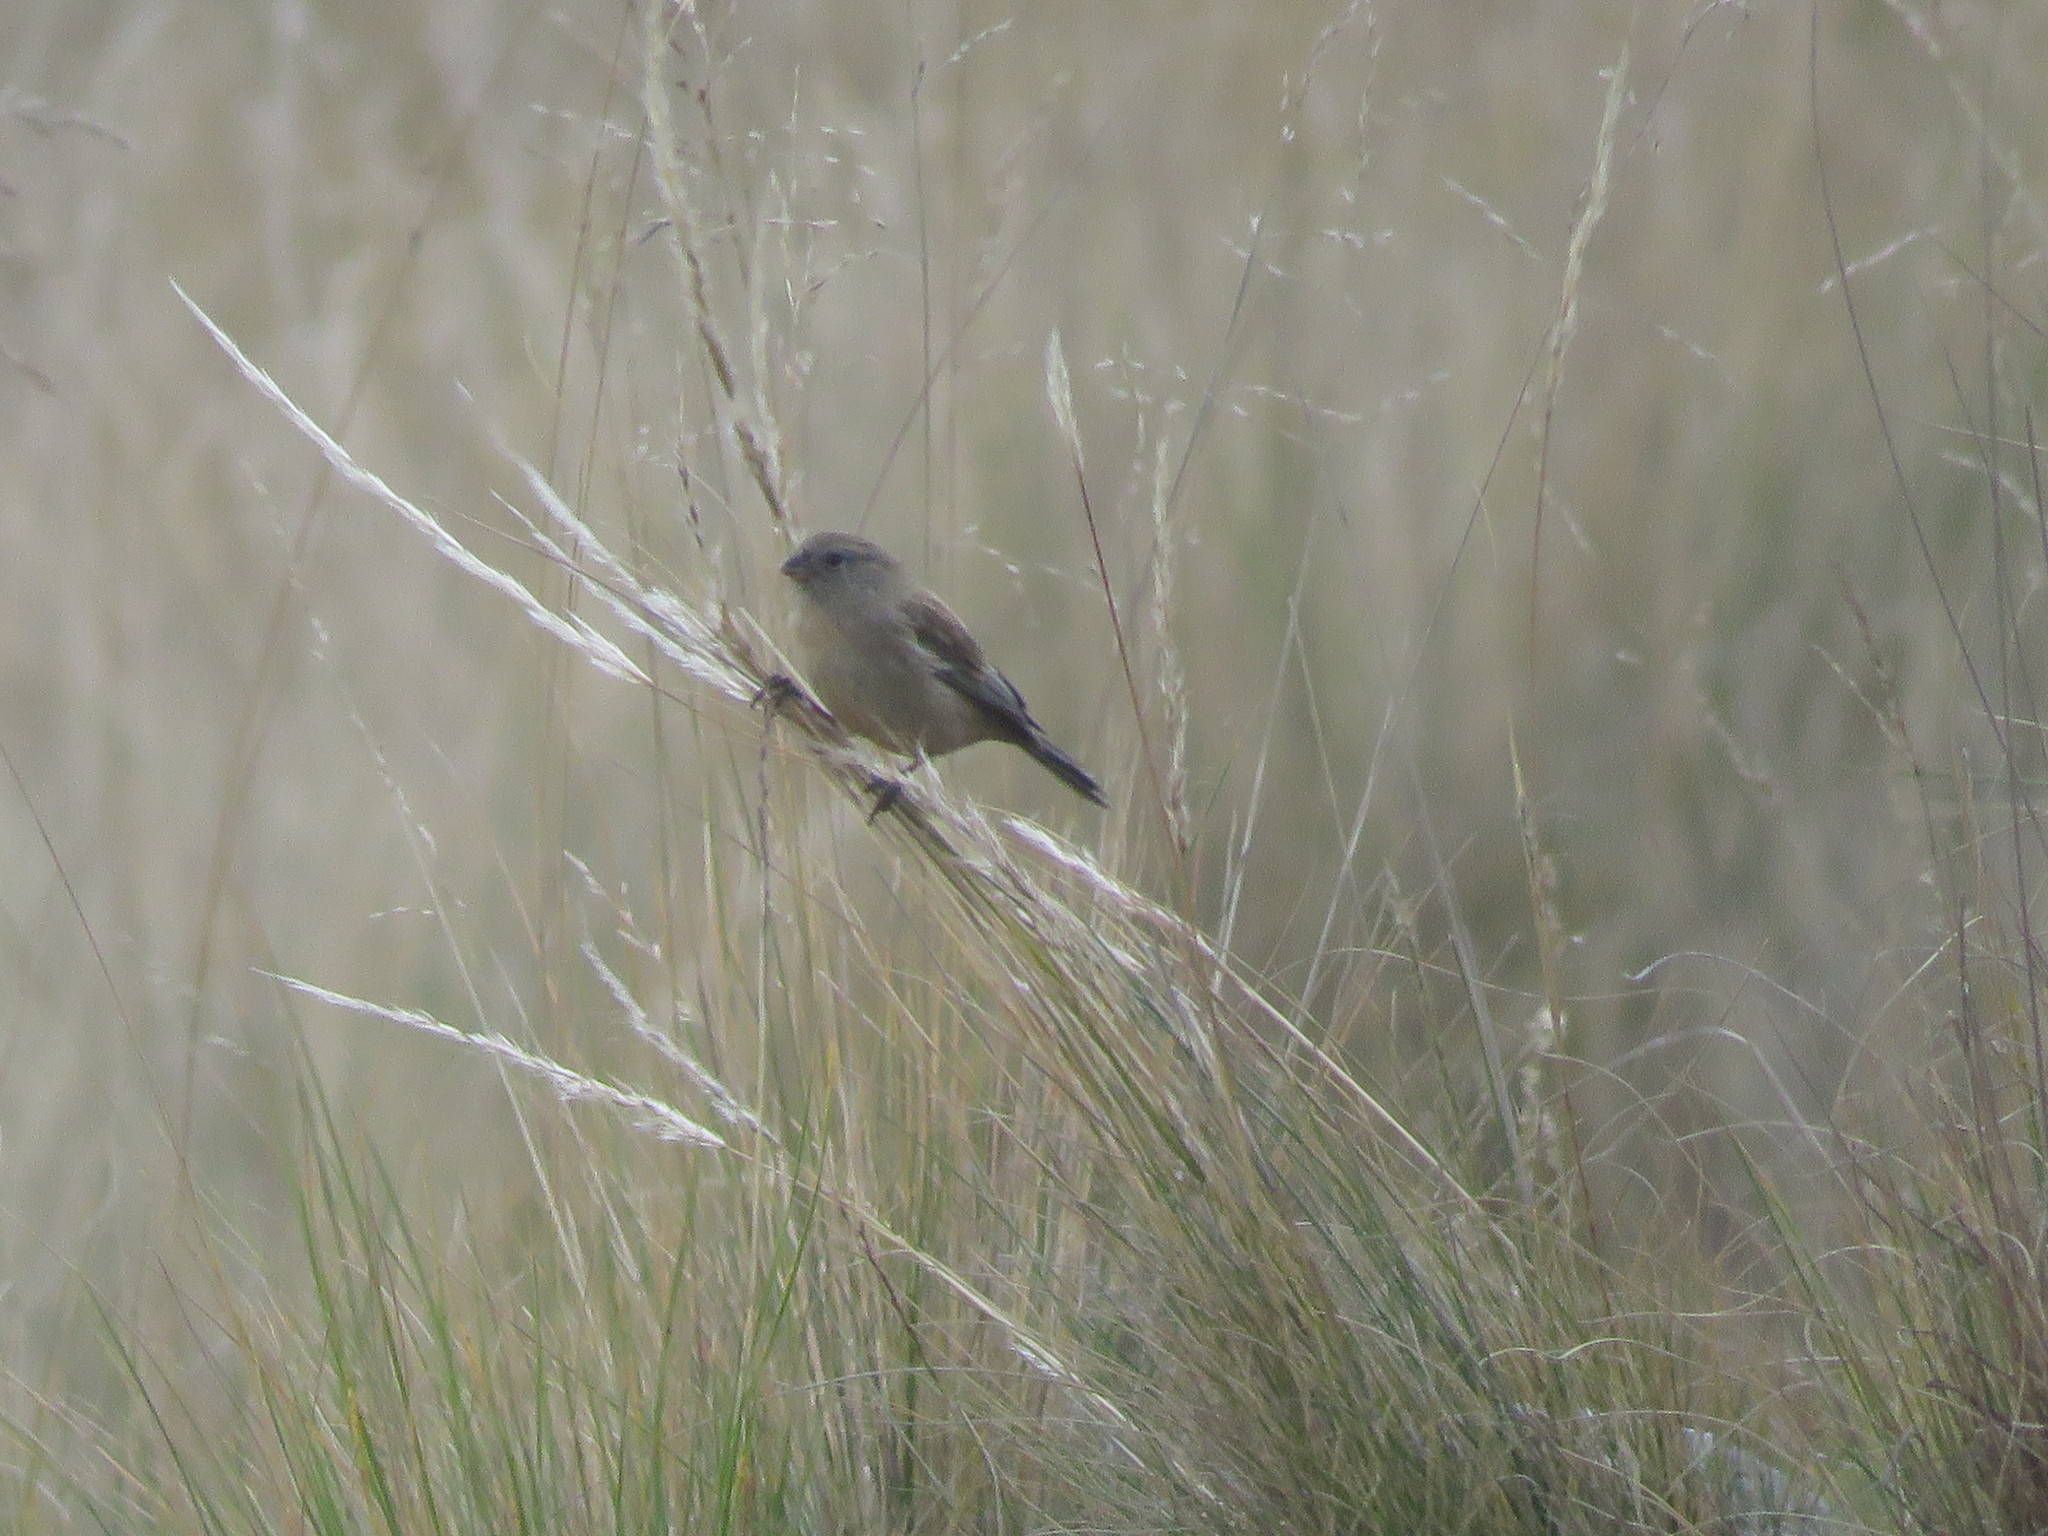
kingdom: Animalia
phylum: Chordata
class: Aves
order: Passeriformes
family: Thraupidae
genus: Catamenia
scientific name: Catamenia inornata
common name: Plain-colored seedeater
